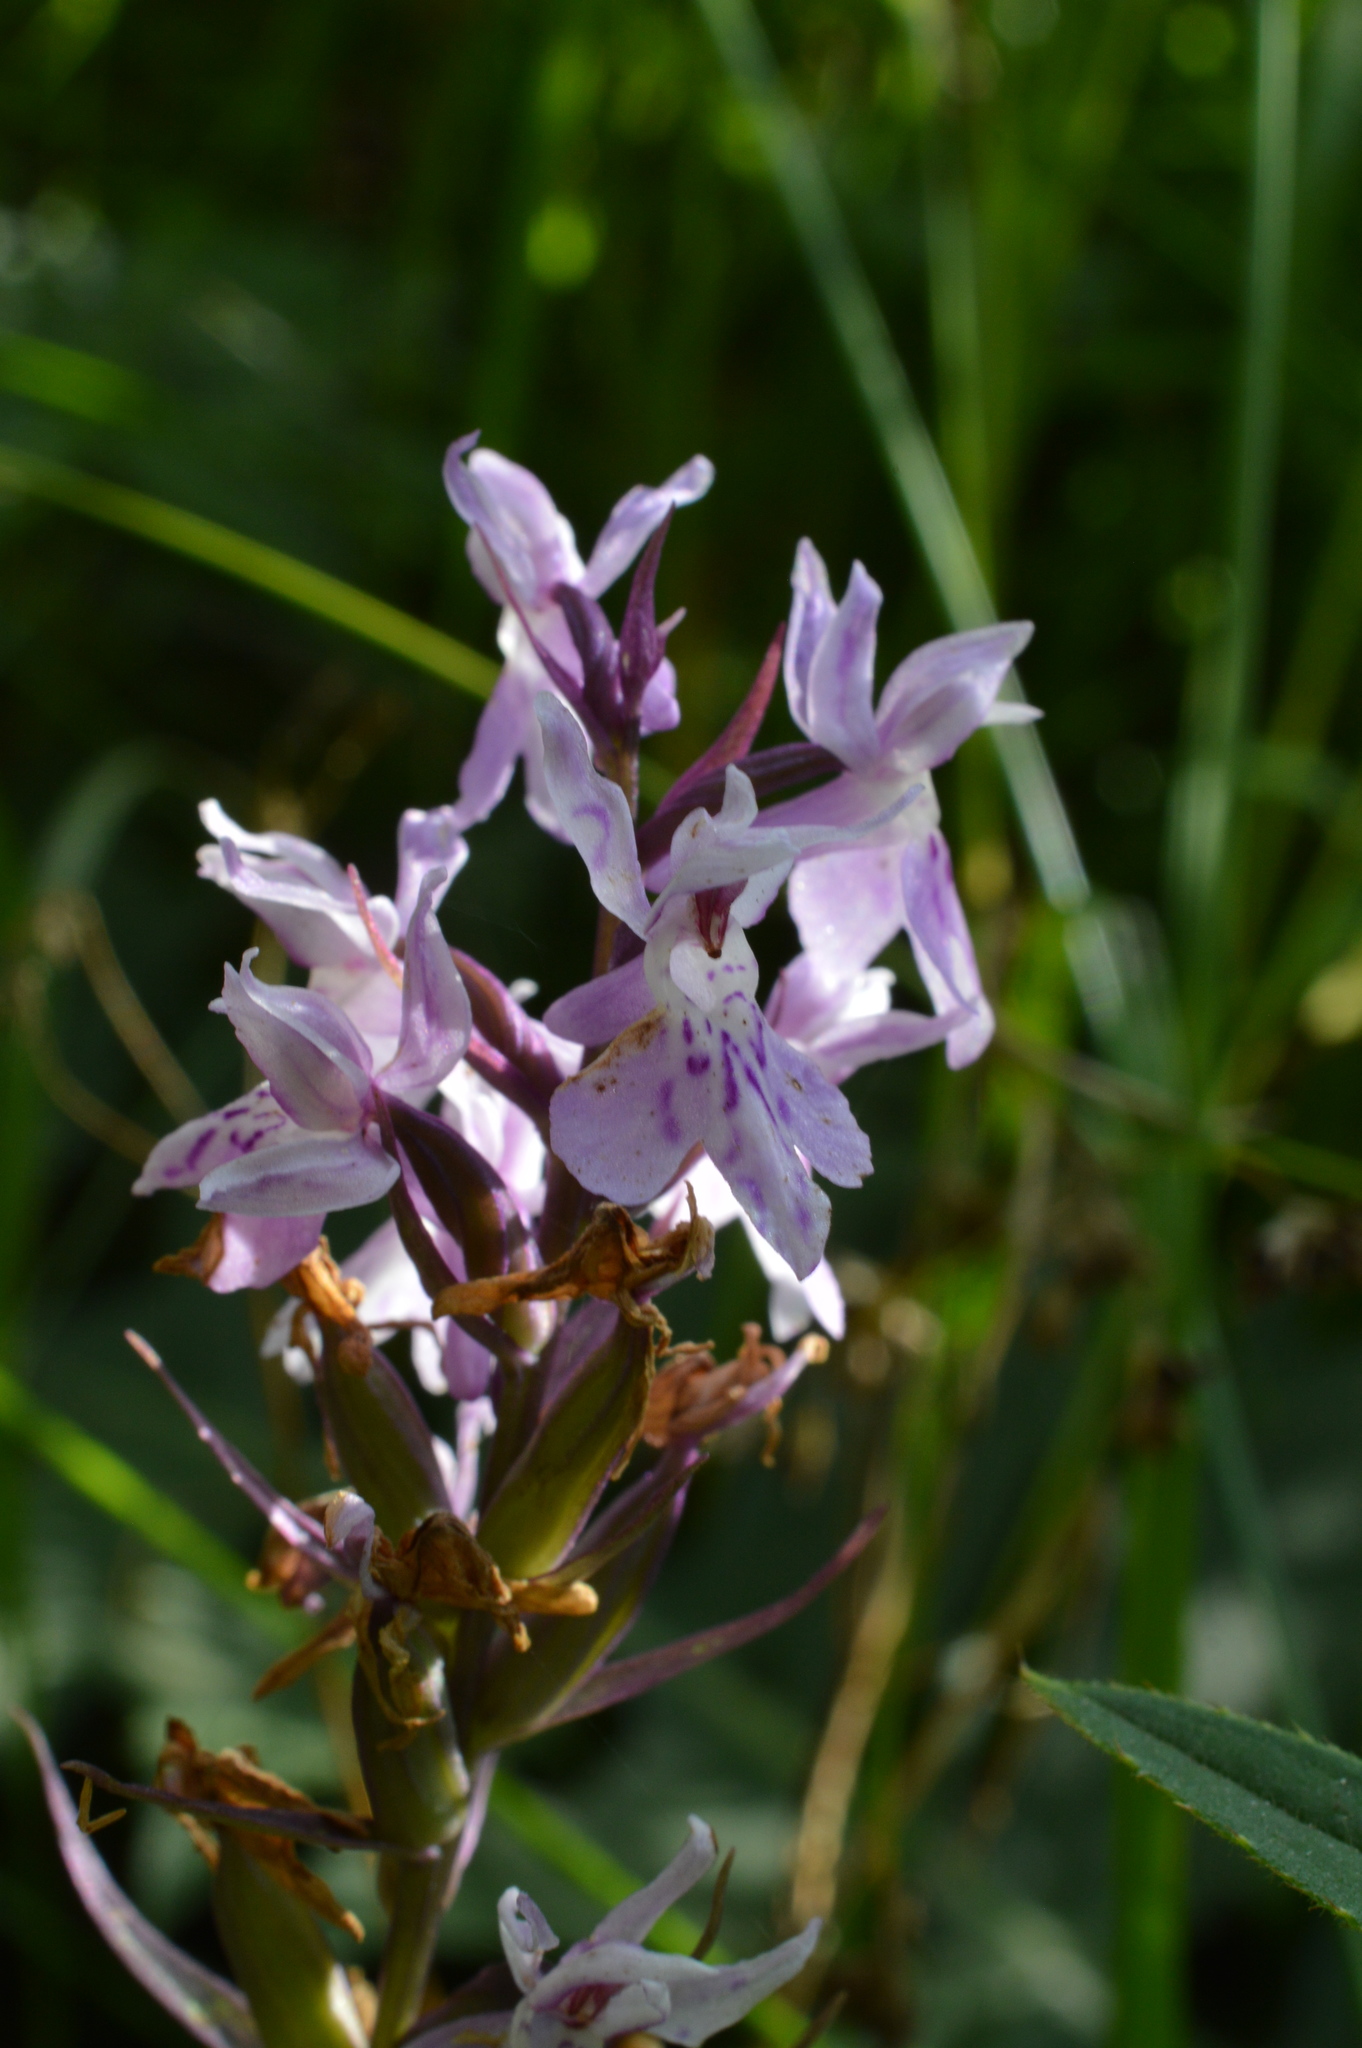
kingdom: Plantae
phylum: Tracheophyta
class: Liliopsida
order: Asparagales
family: Orchidaceae
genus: Dactylorhiza
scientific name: Dactylorhiza maculata
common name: Heath spotted-orchid
